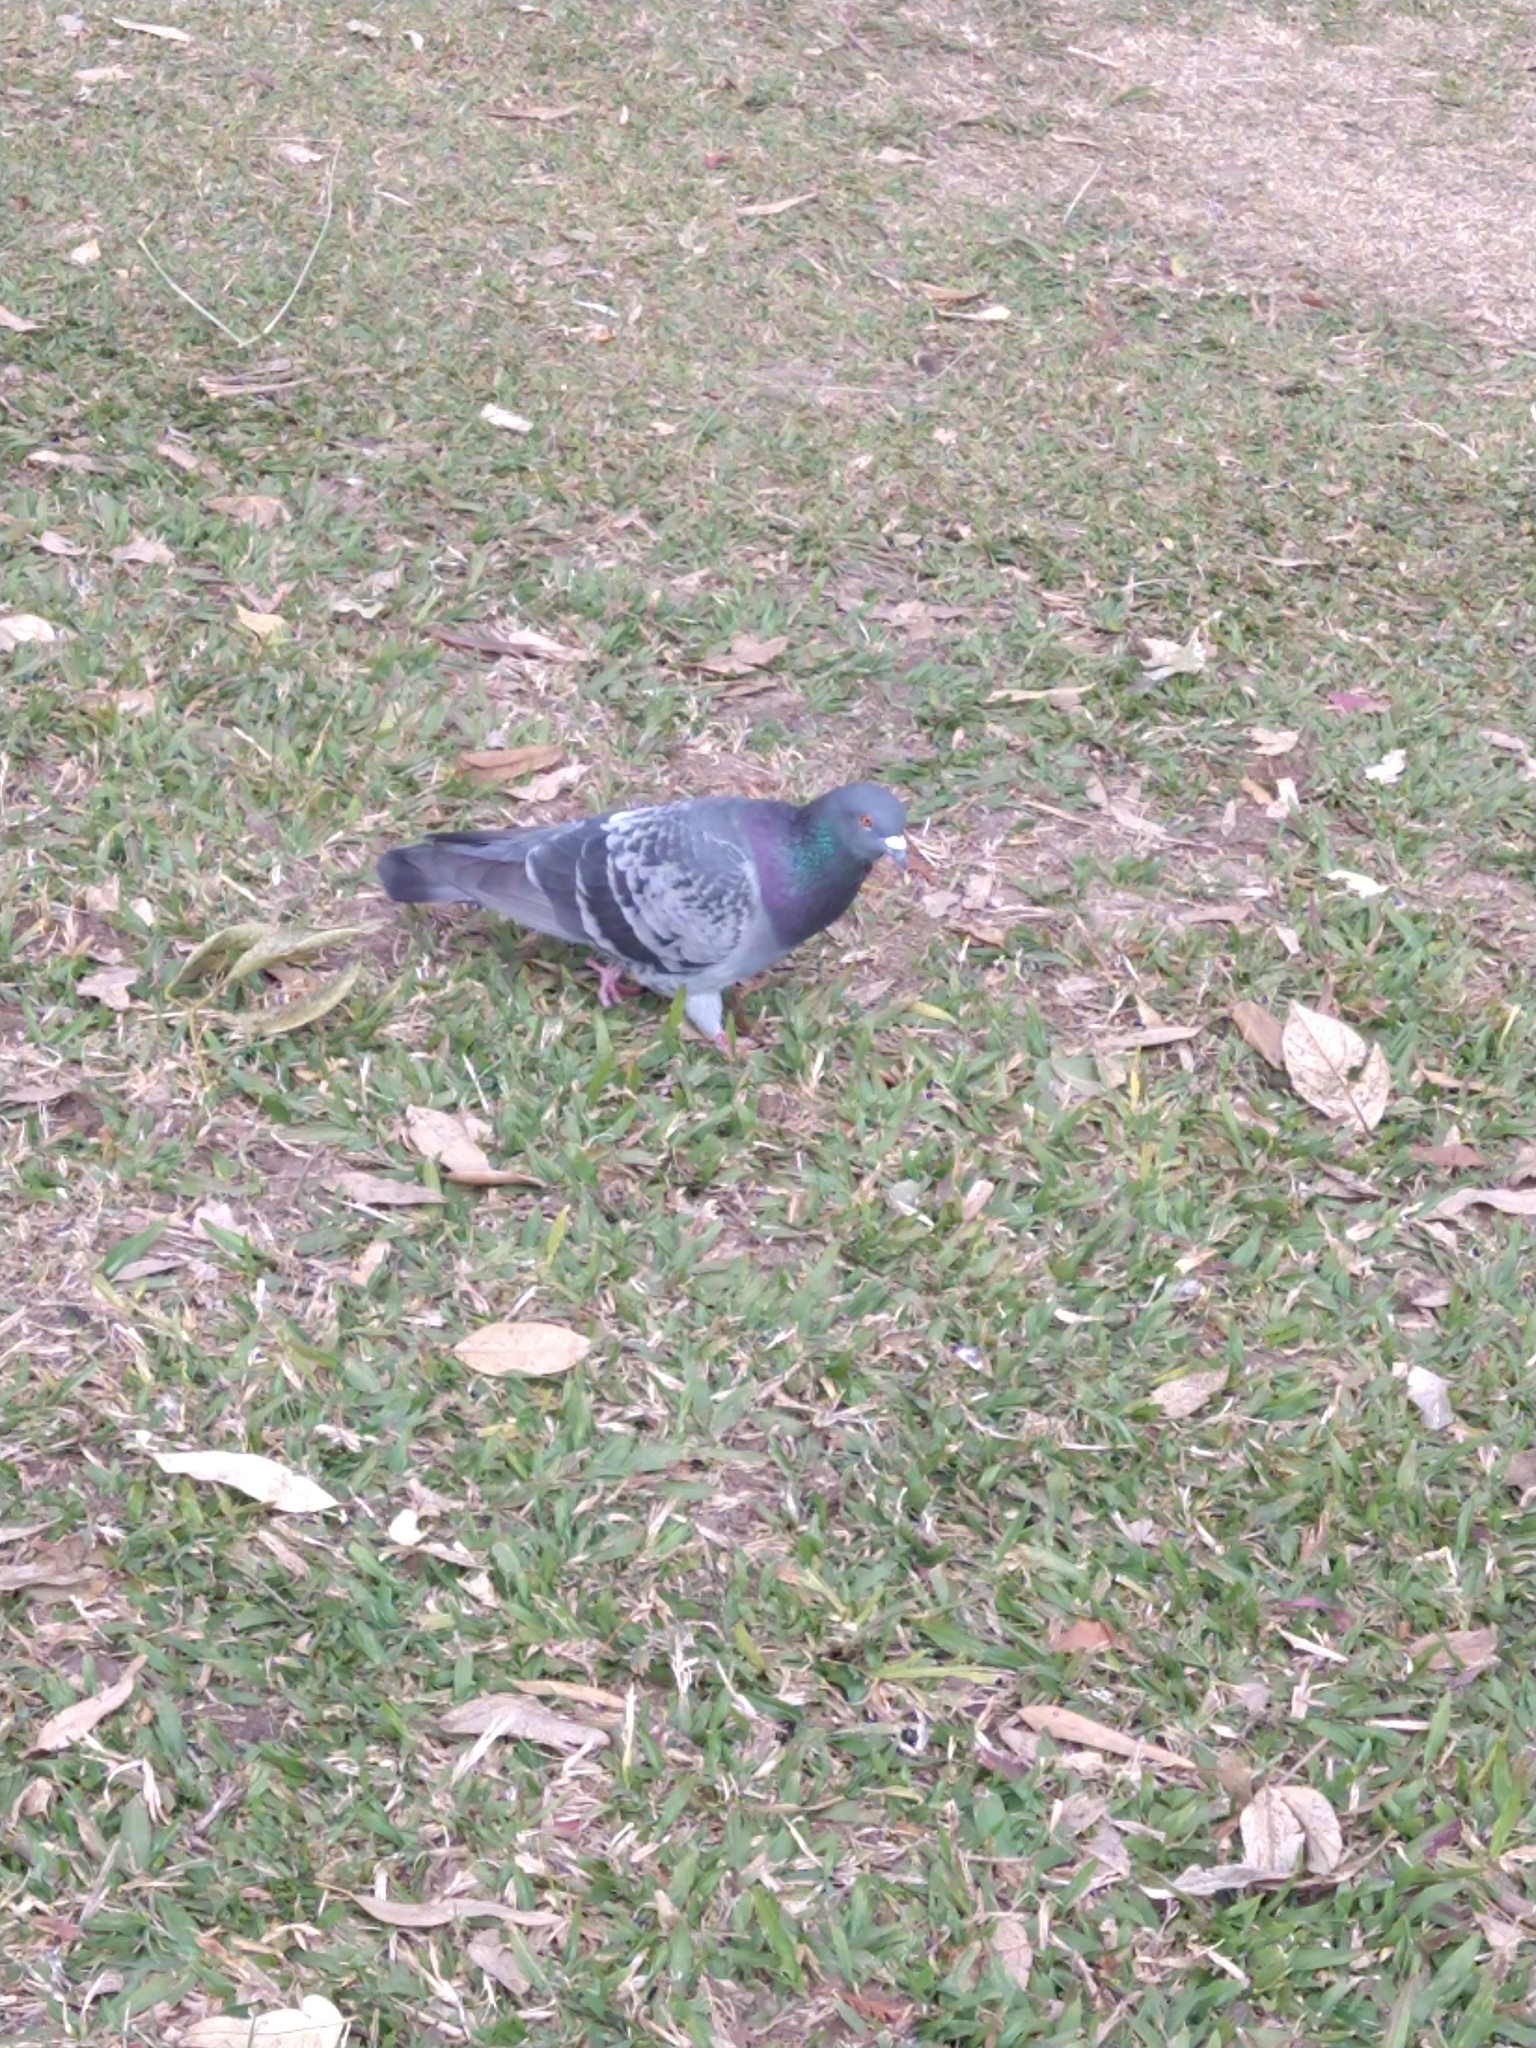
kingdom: Animalia
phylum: Chordata
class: Aves
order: Columbiformes
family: Columbidae
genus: Columba
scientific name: Columba livia
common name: Rock pigeon
